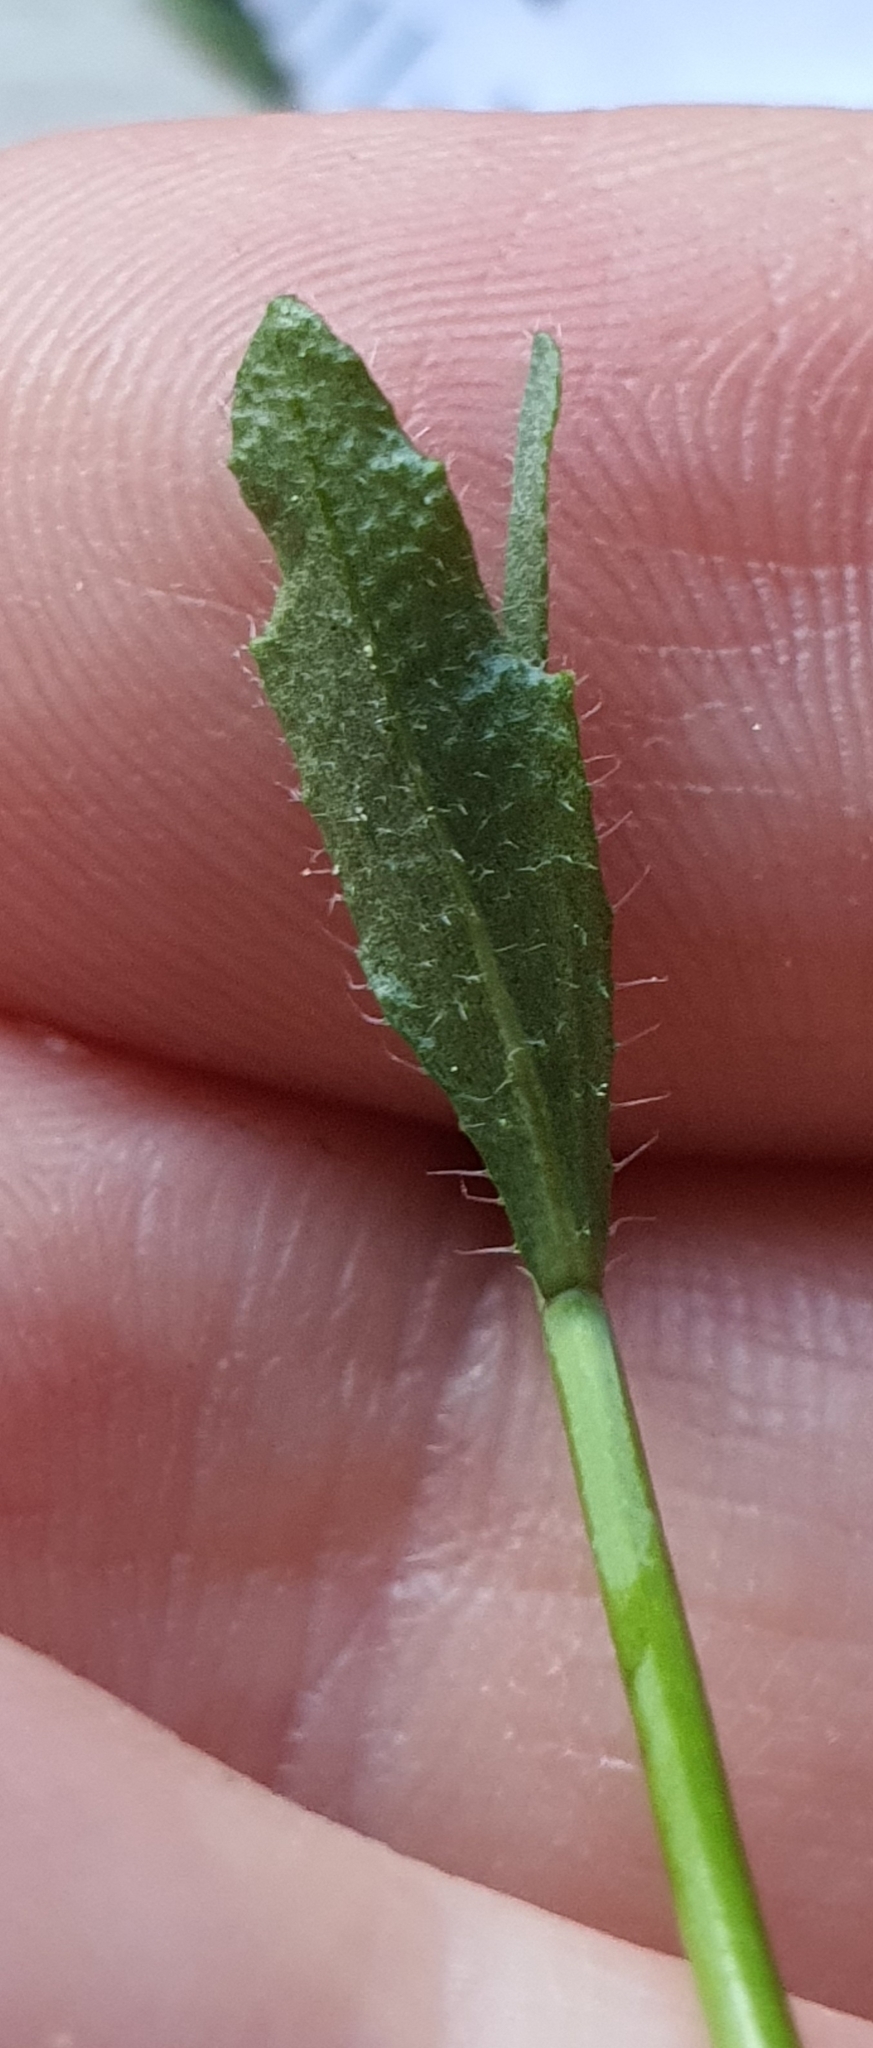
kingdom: Plantae
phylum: Tracheophyta
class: Magnoliopsida
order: Brassicales
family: Brassicaceae
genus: Arabidopsis
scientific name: Arabidopsis thaliana
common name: Thale cress
